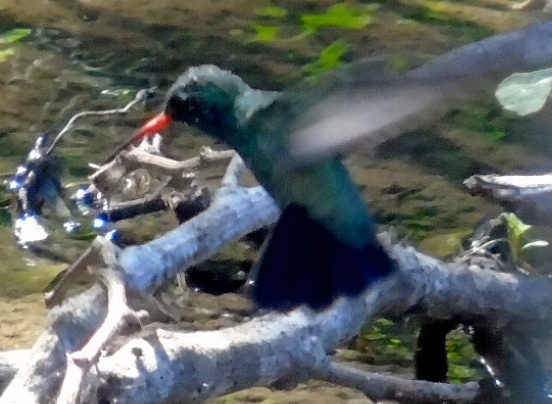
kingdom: Animalia
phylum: Chordata
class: Aves
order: Apodiformes
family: Trochilidae
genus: Cynanthus
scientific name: Cynanthus latirostris
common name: Broad-billed hummingbird
